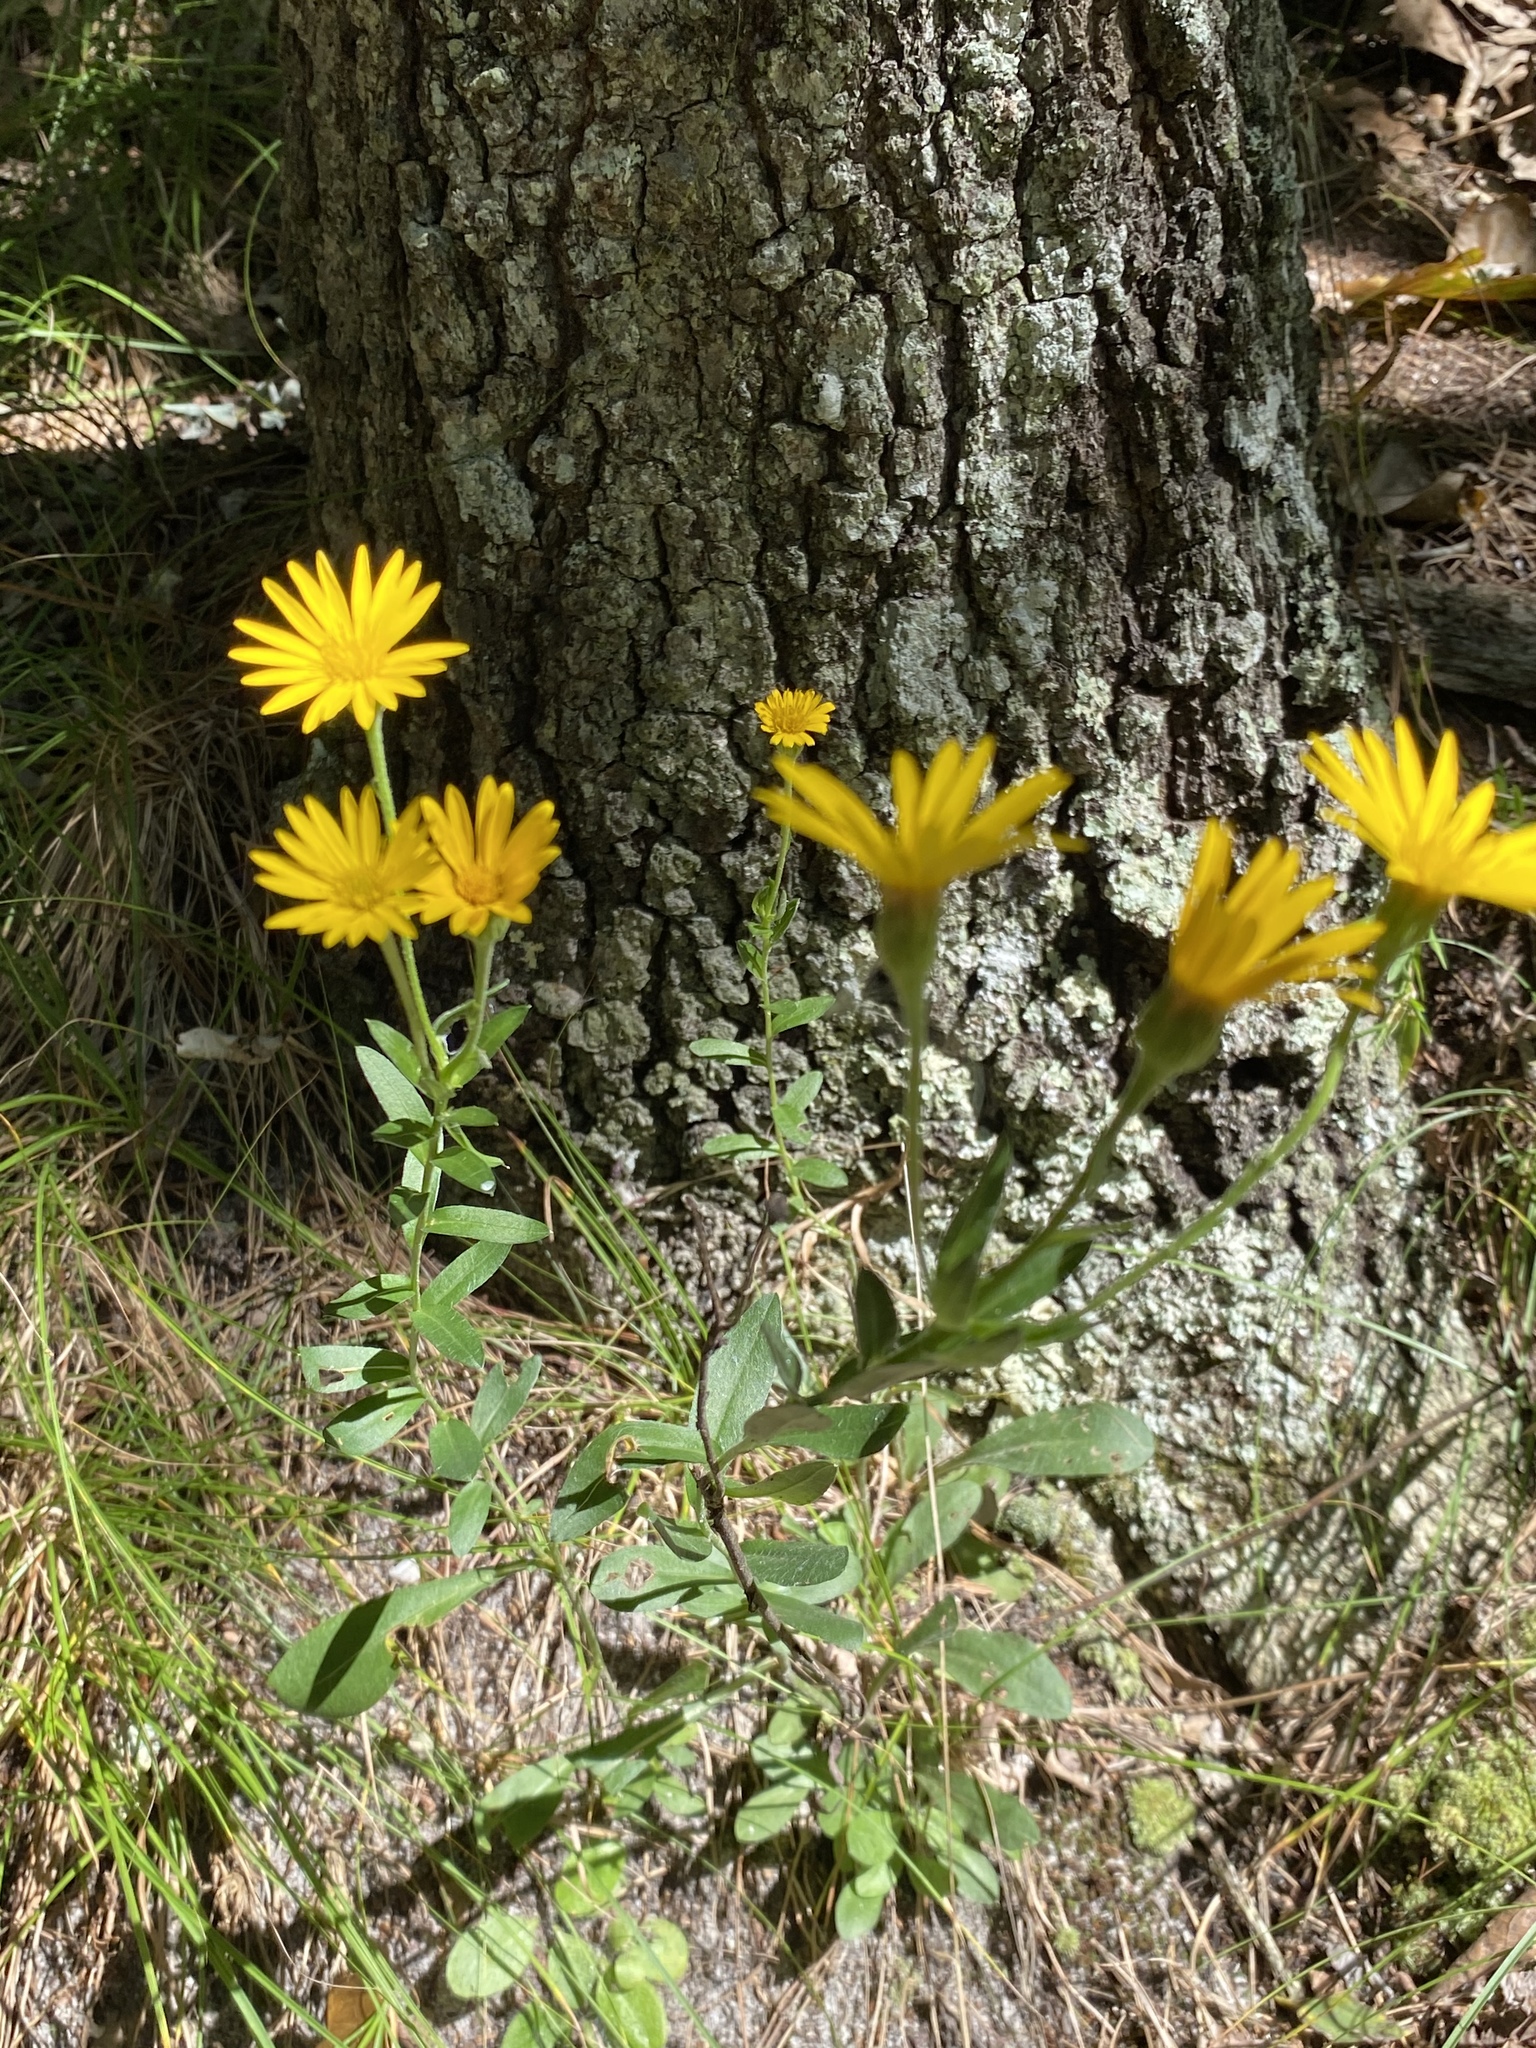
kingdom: Plantae
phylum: Tracheophyta
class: Magnoliopsida
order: Asterales
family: Asteraceae
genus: Chrysopsis
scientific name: Chrysopsis mariana
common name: Maryland golden-aster
